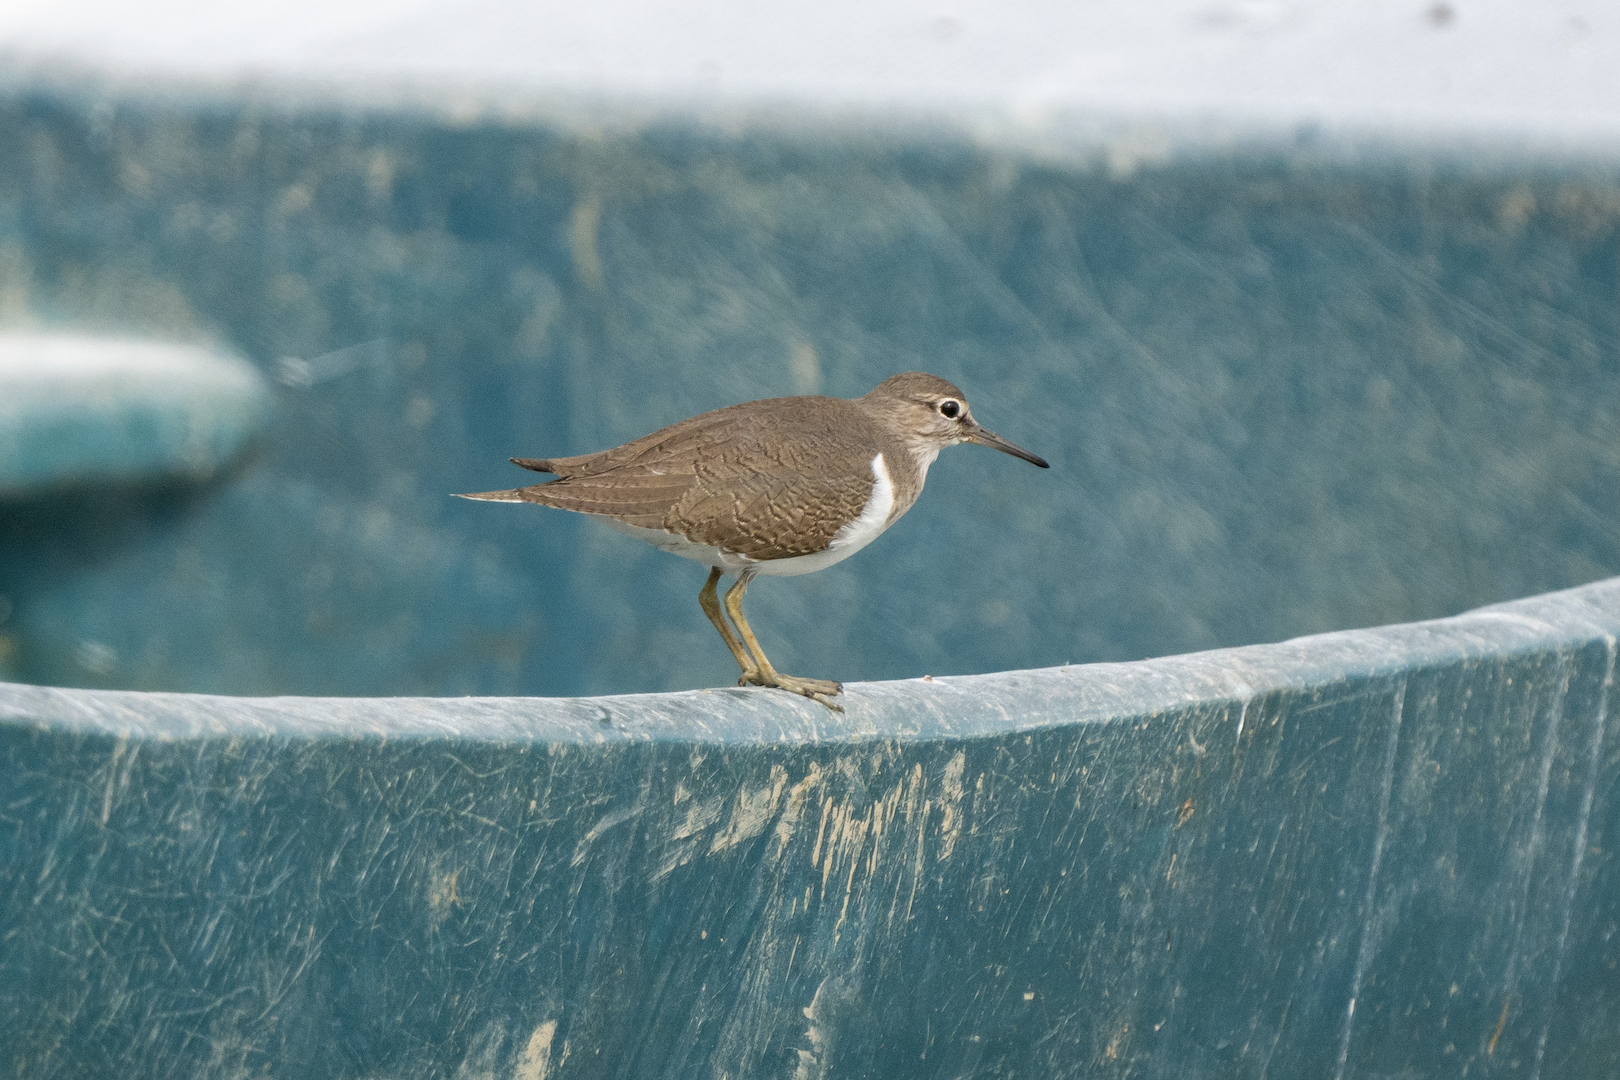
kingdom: Animalia
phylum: Chordata
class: Aves
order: Charadriiformes
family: Scolopacidae
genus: Actitis
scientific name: Actitis hypoleucos
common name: Common sandpiper
